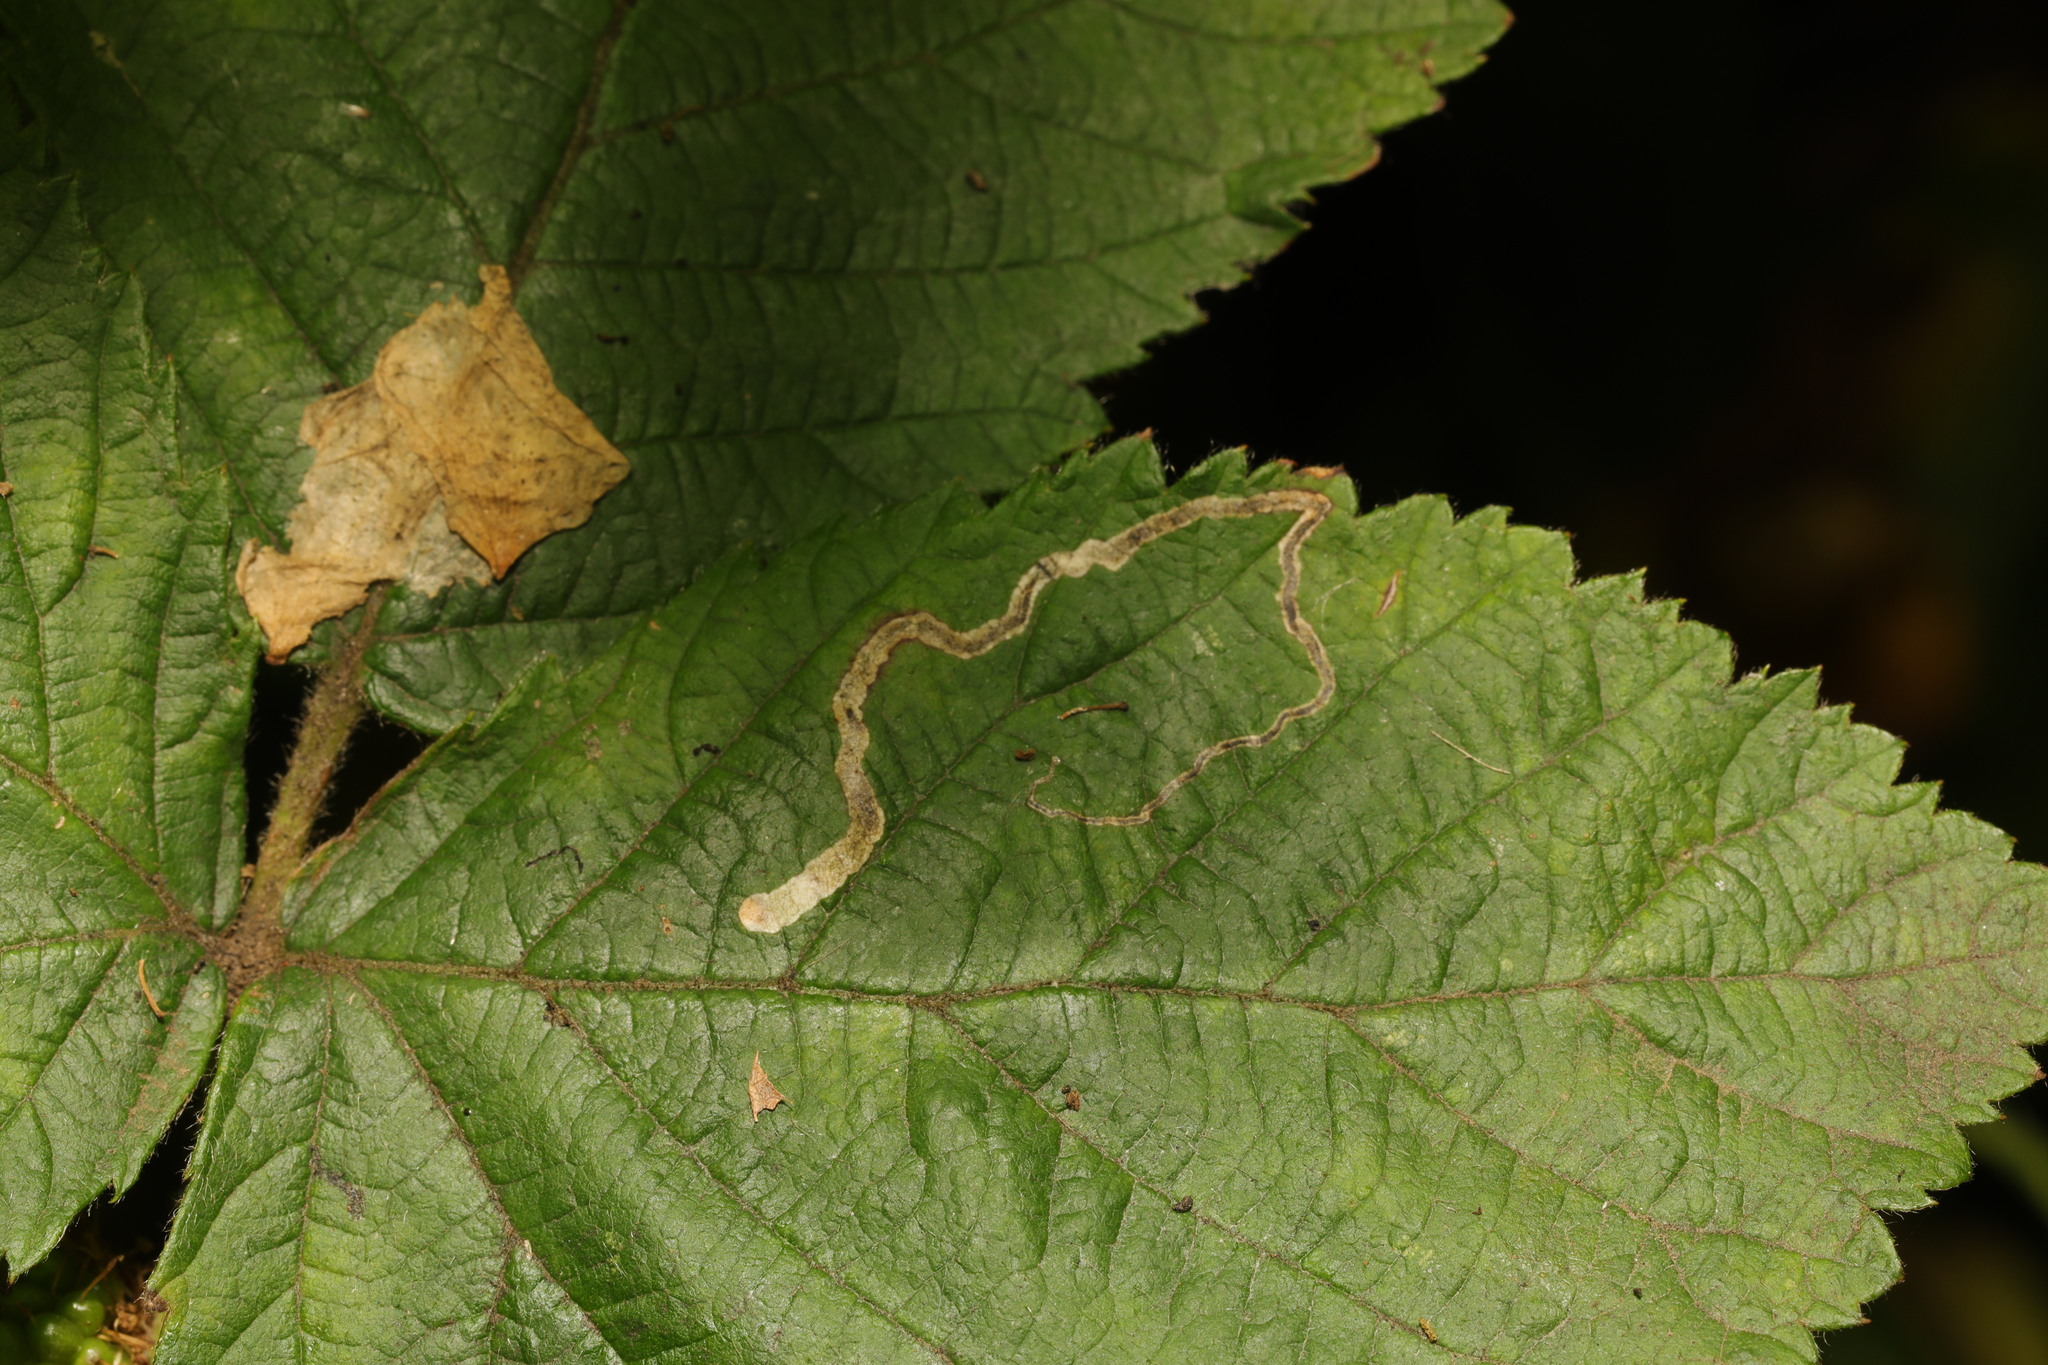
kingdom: Animalia
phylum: Arthropoda
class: Insecta
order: Lepidoptera
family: Nepticulidae
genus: Stigmella
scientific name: Stigmella aurella
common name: Golden pigmy
